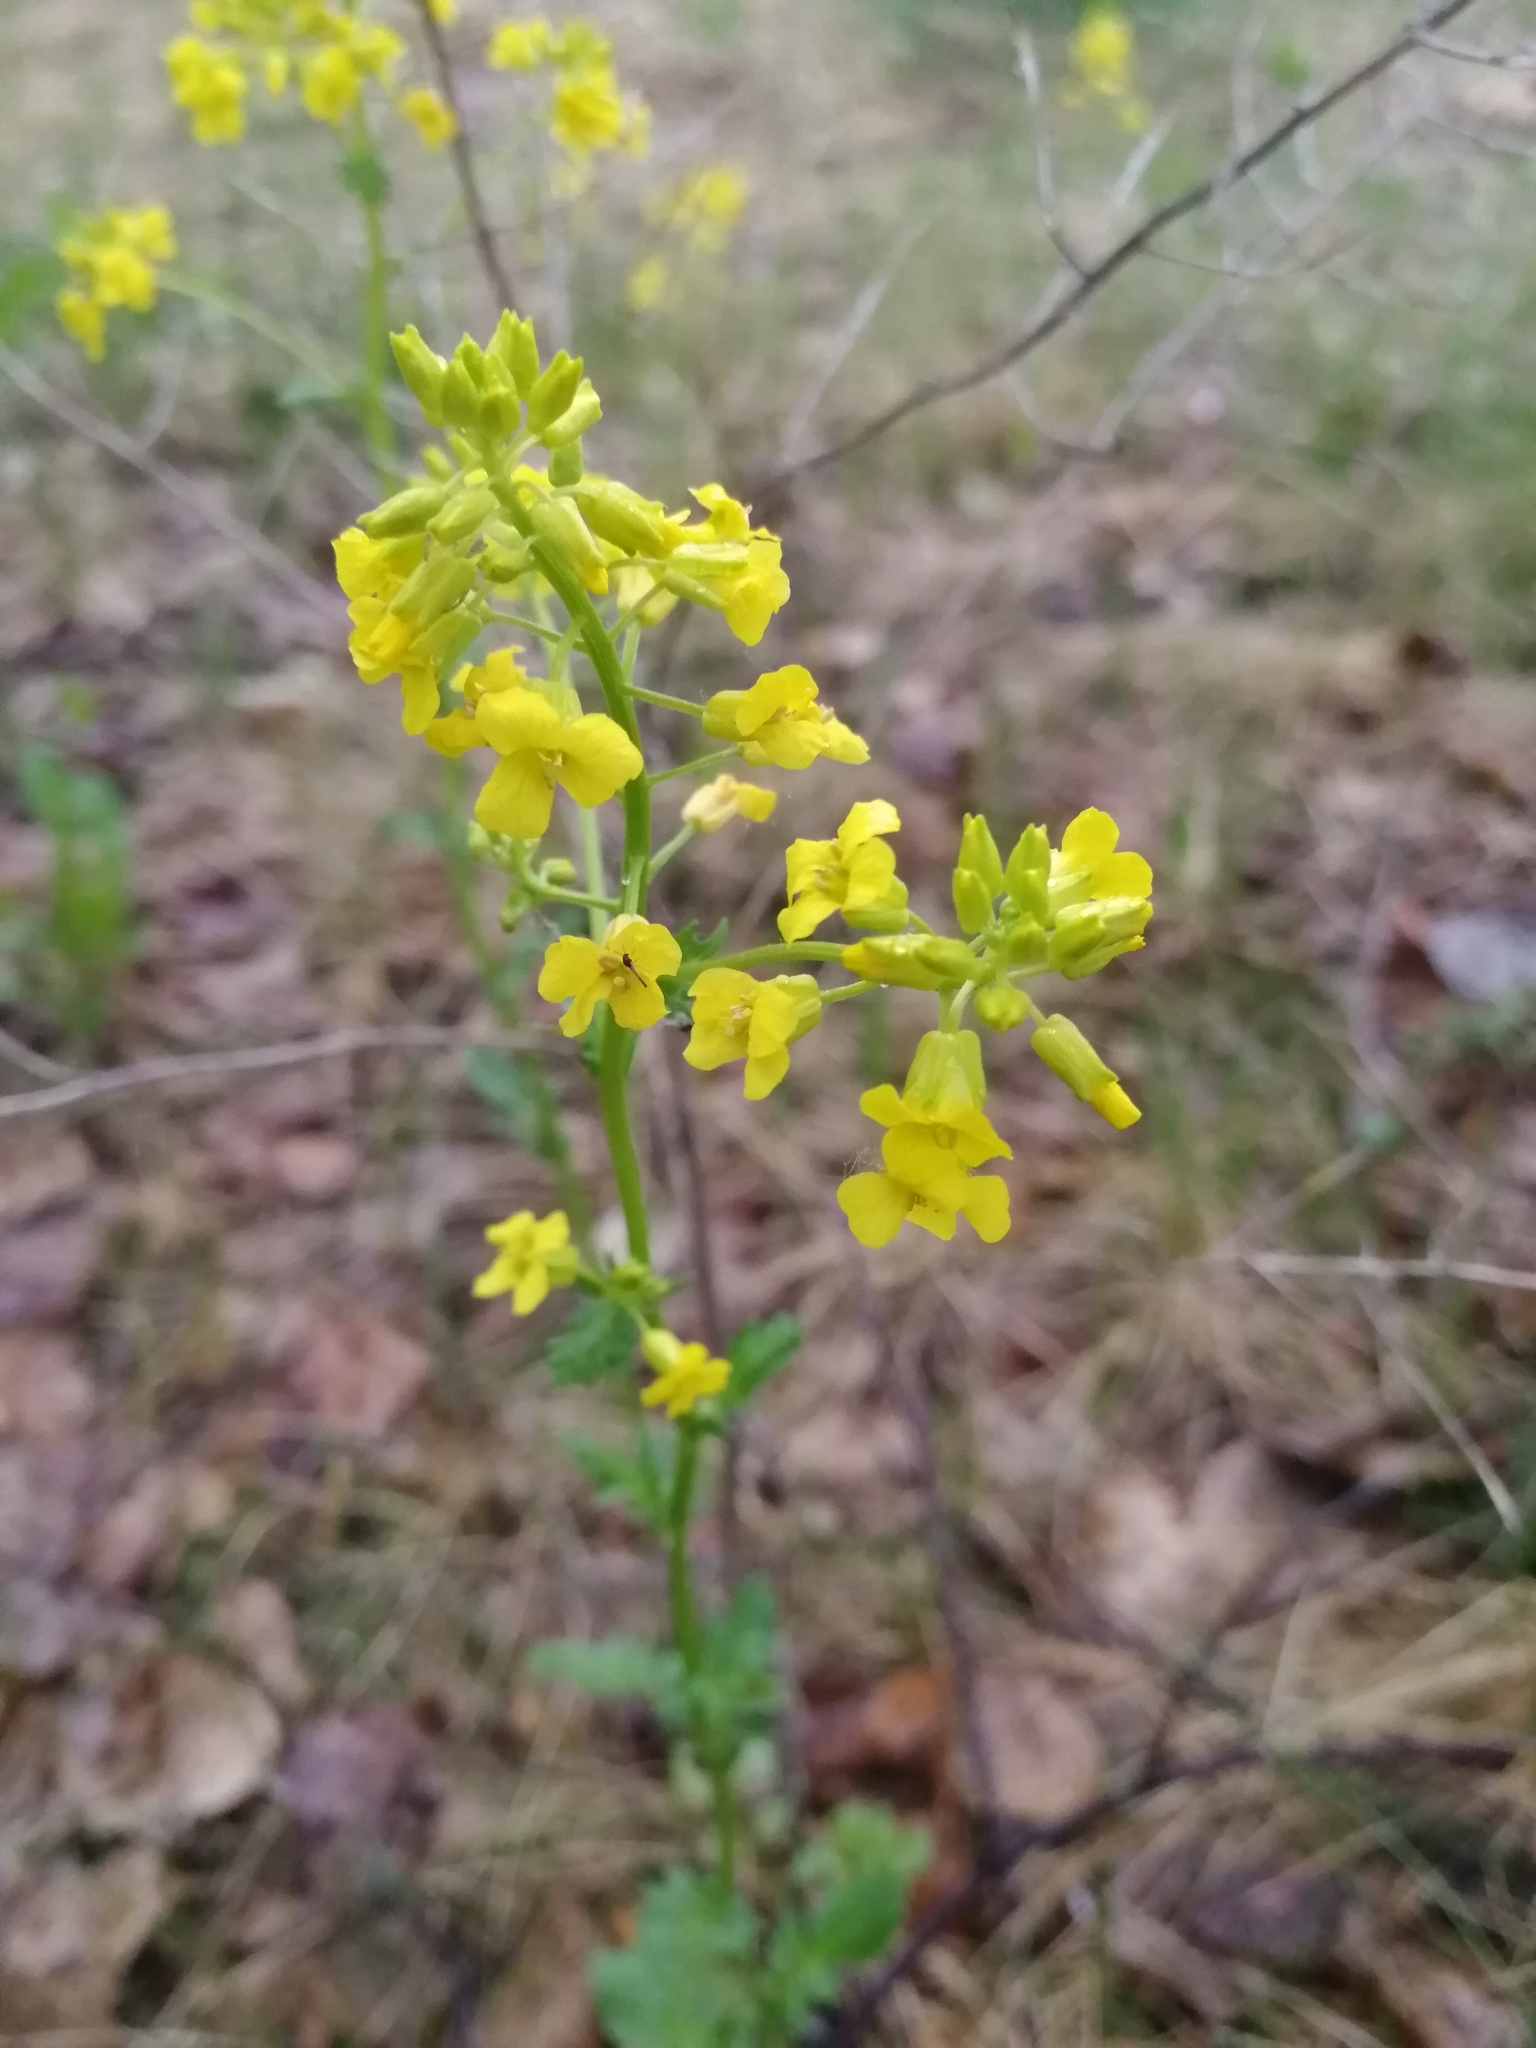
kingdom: Plantae
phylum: Tracheophyta
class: Magnoliopsida
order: Brassicales
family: Brassicaceae
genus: Barbarea
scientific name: Barbarea stricta
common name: Small-flowered winter-cress
